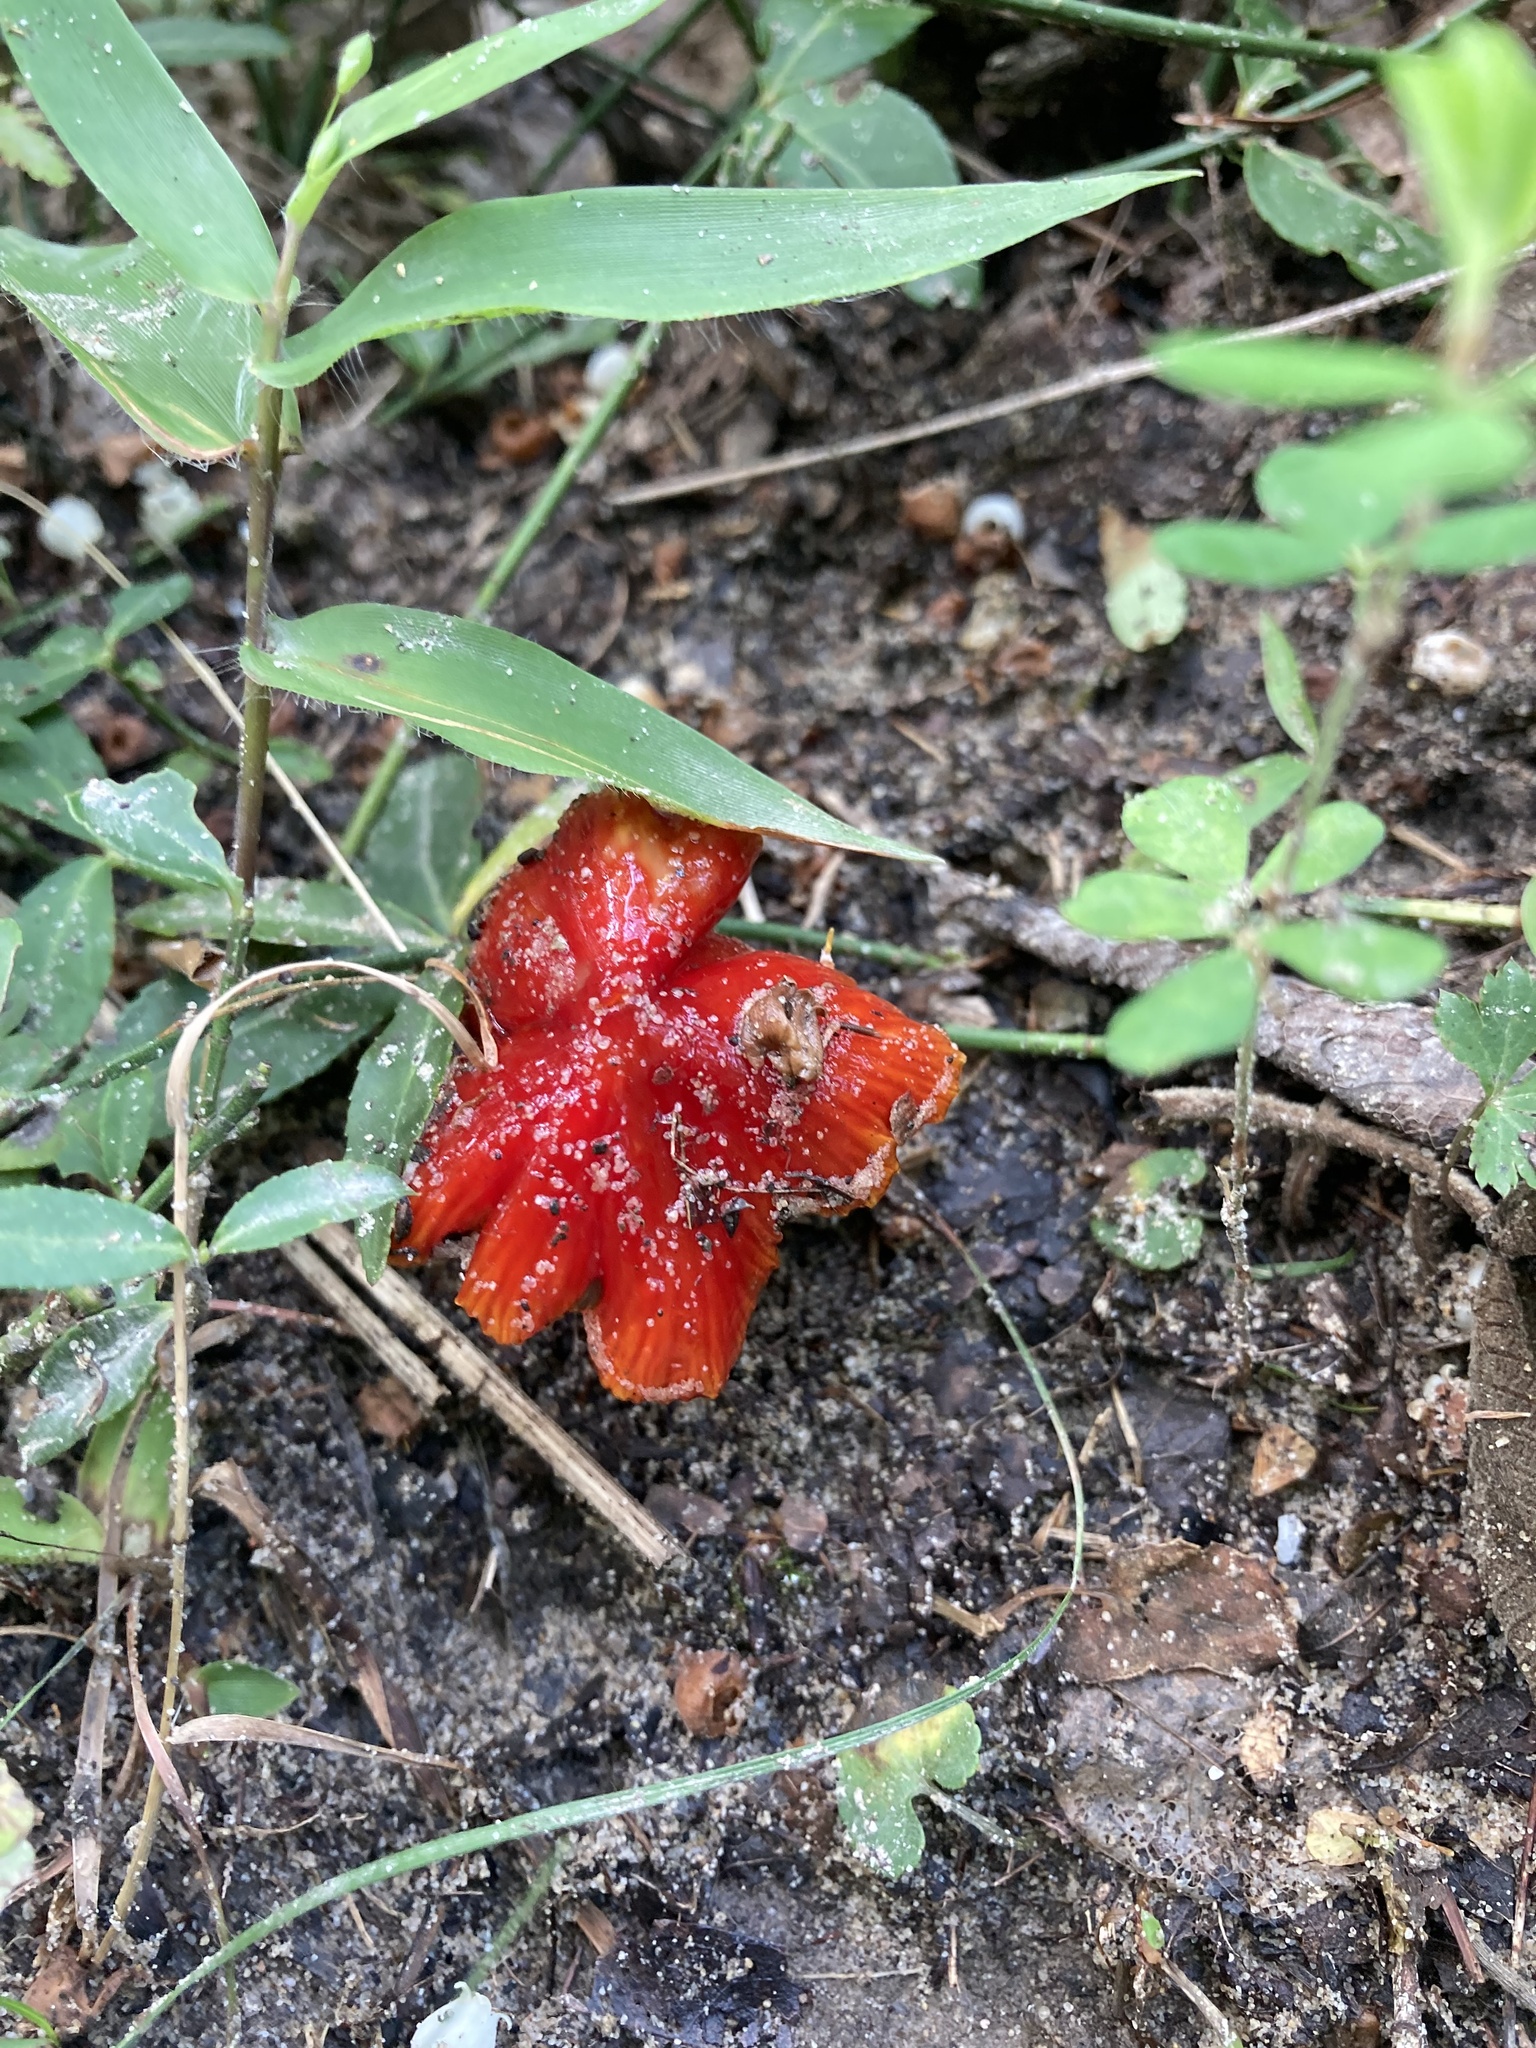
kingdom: Fungi
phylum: Basidiomycota
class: Agaricomycetes
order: Agaricales
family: Hygrophoraceae
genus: Hygrocybe
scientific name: Hygrocybe cuspidata
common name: Candy apple waxy cap
